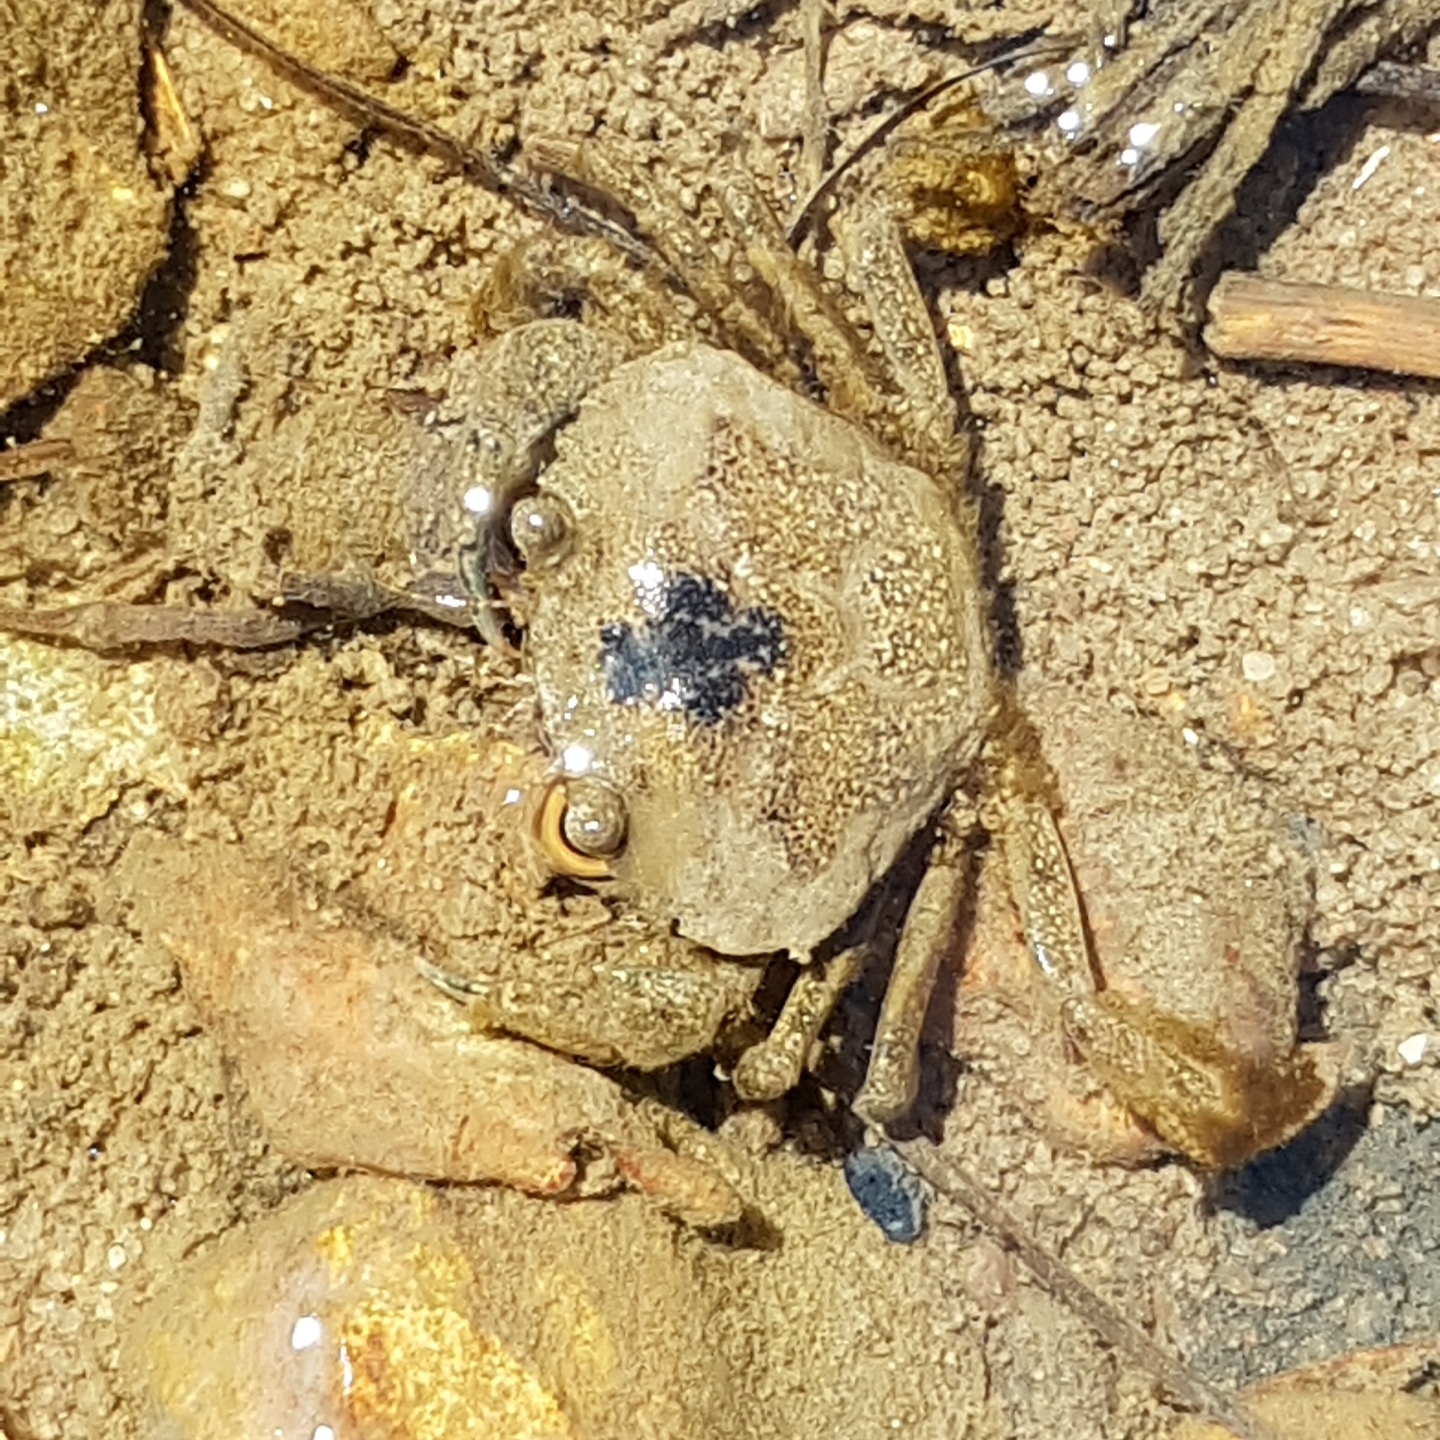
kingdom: Animalia
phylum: Arthropoda
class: Malacostraca
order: Decapoda
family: Carcinidae
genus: Carcinus
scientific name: Carcinus maenas
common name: European green crab
